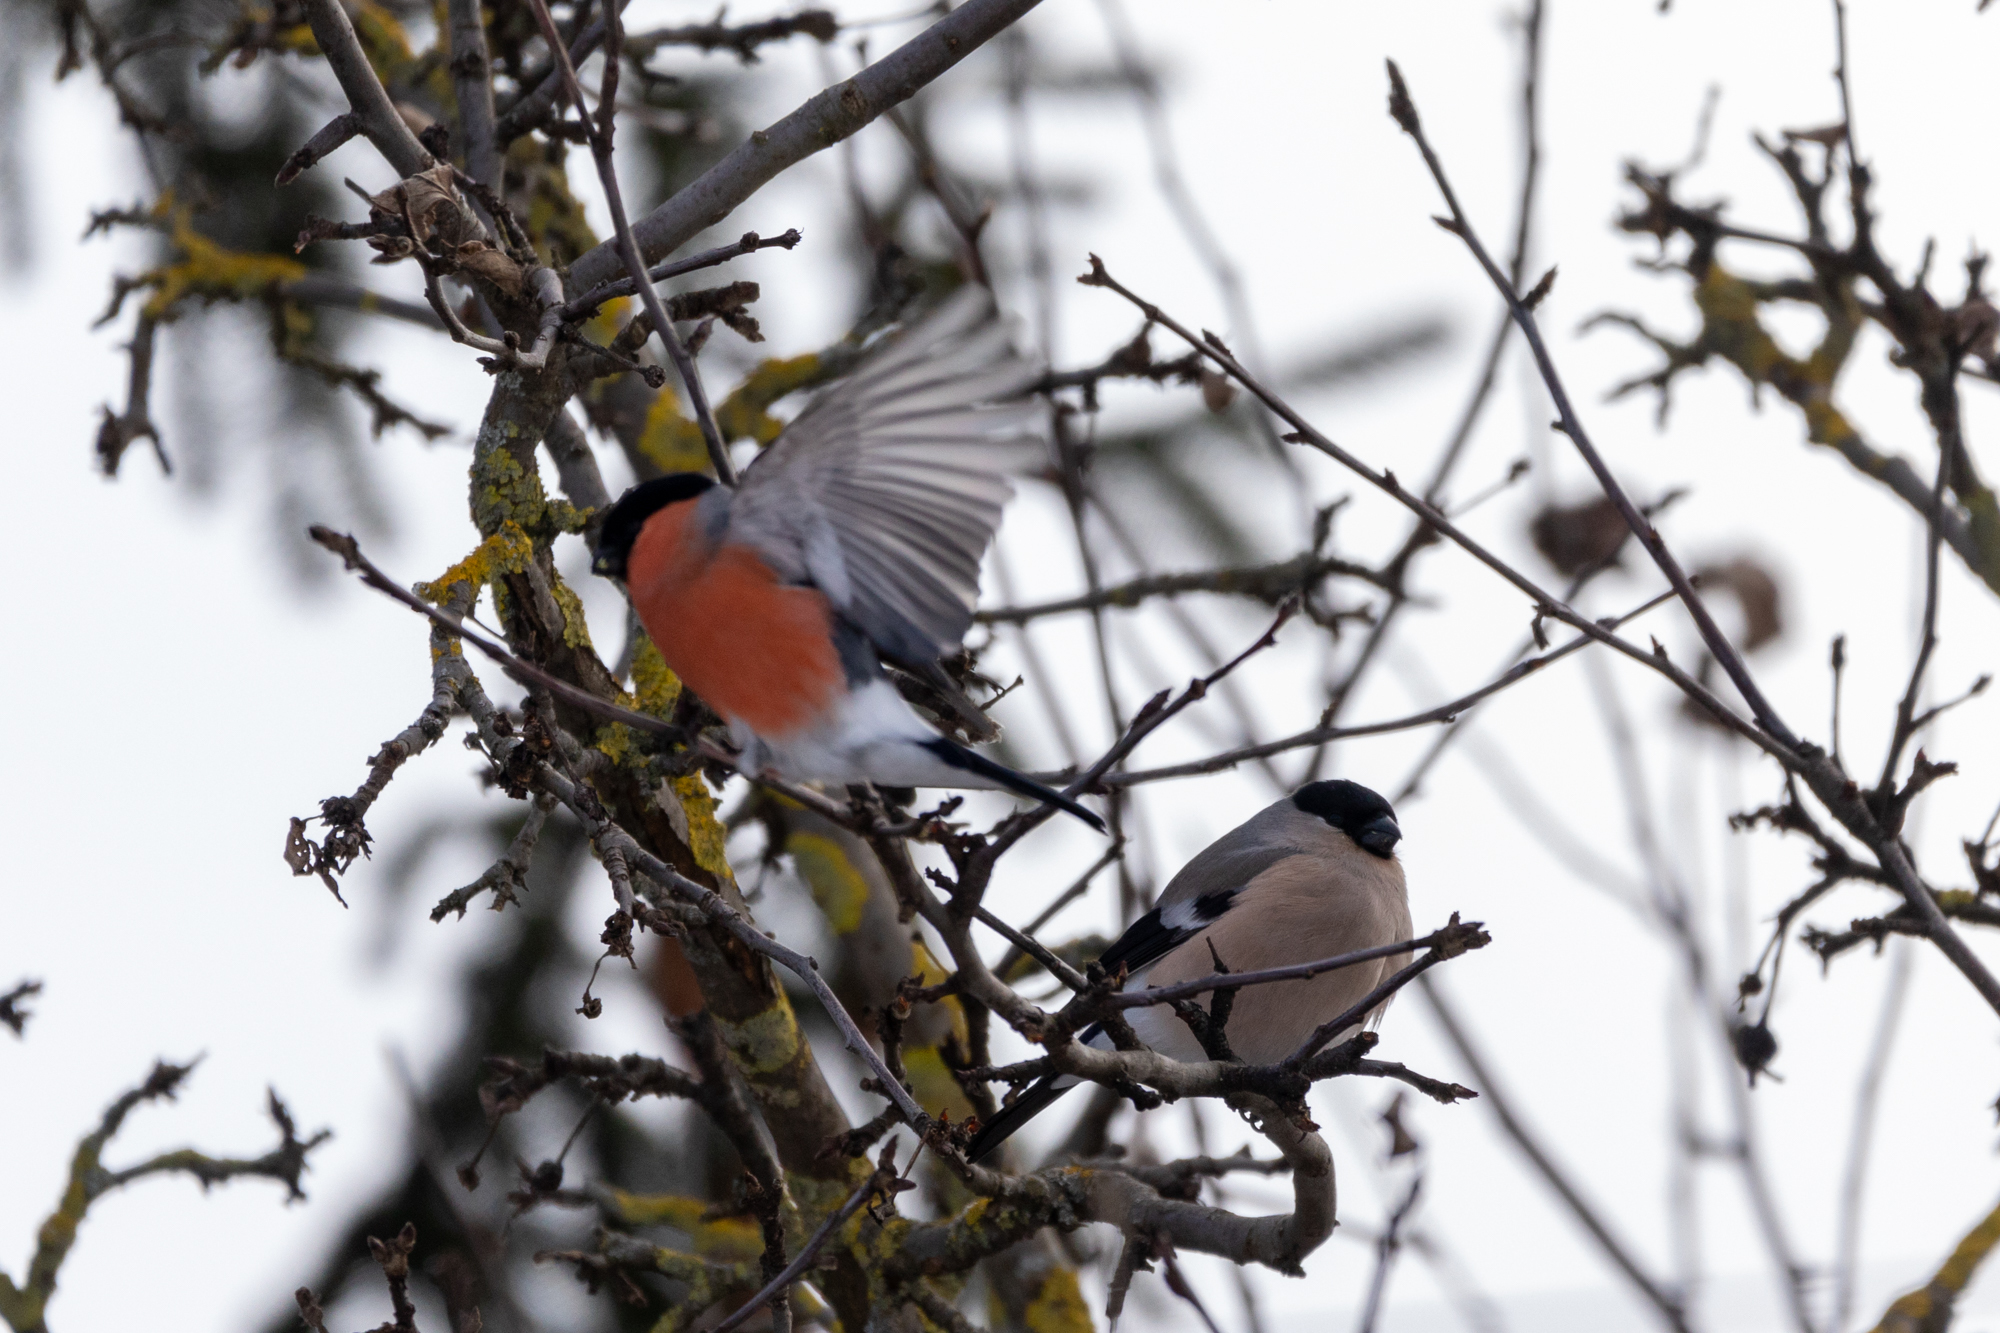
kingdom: Animalia
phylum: Chordata
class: Aves
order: Passeriformes
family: Fringillidae
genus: Pyrrhula
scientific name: Pyrrhula pyrrhula
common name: Eurasian bullfinch
